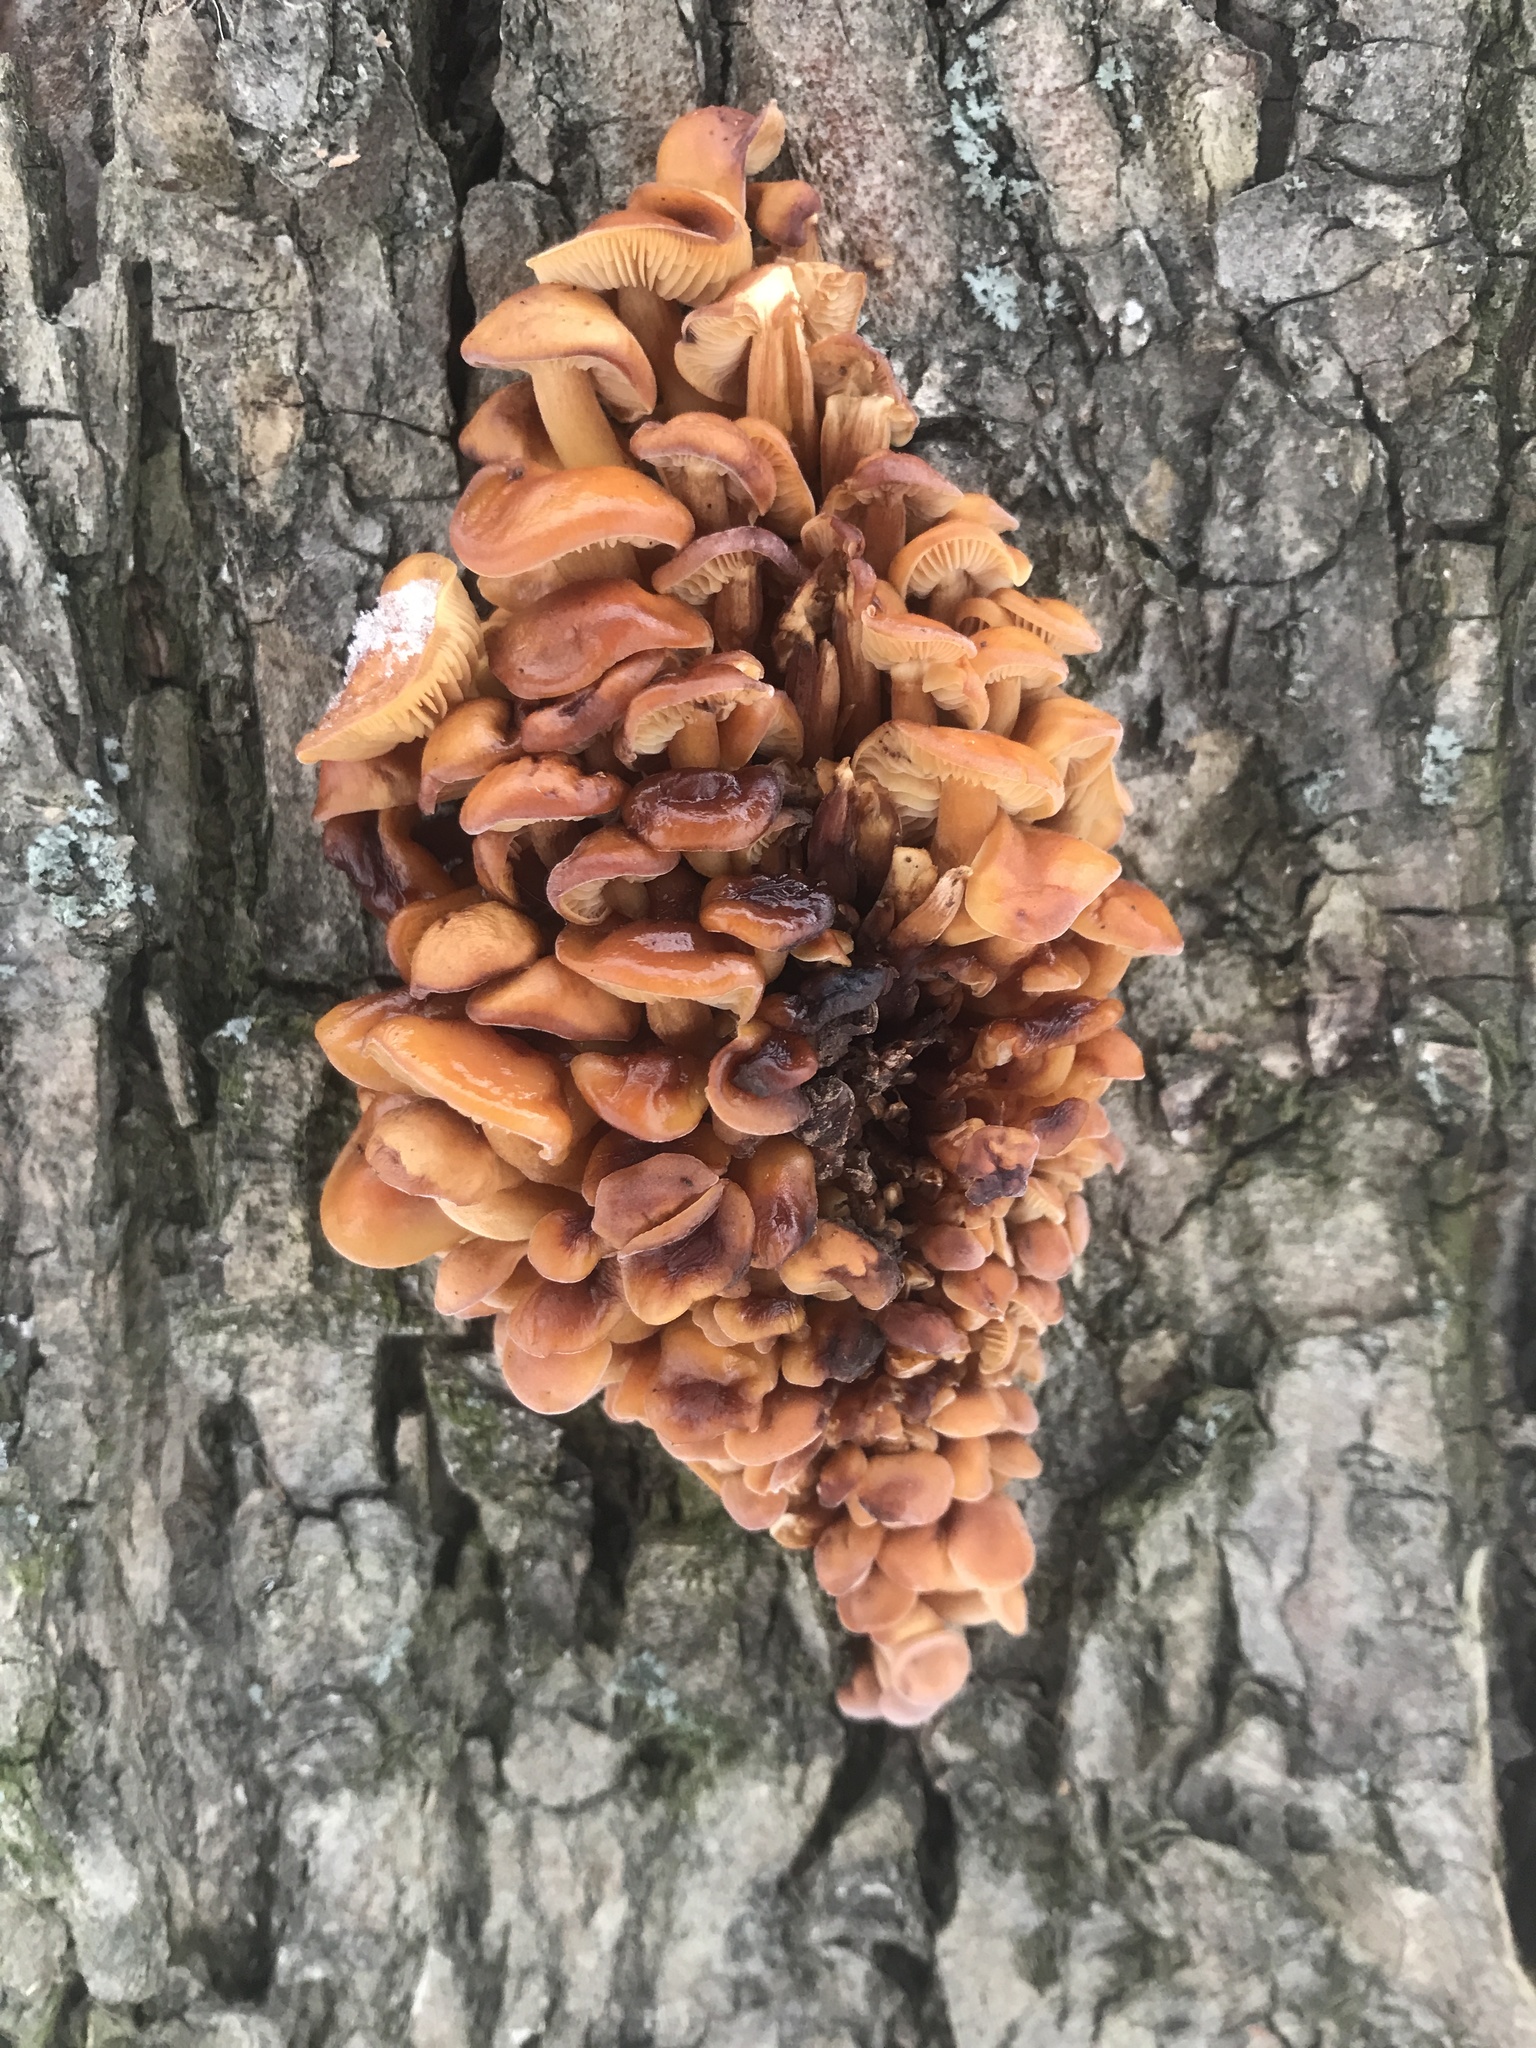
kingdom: Fungi
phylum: Basidiomycota
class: Agaricomycetes
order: Agaricales
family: Physalacriaceae
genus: Flammulina
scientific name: Flammulina
